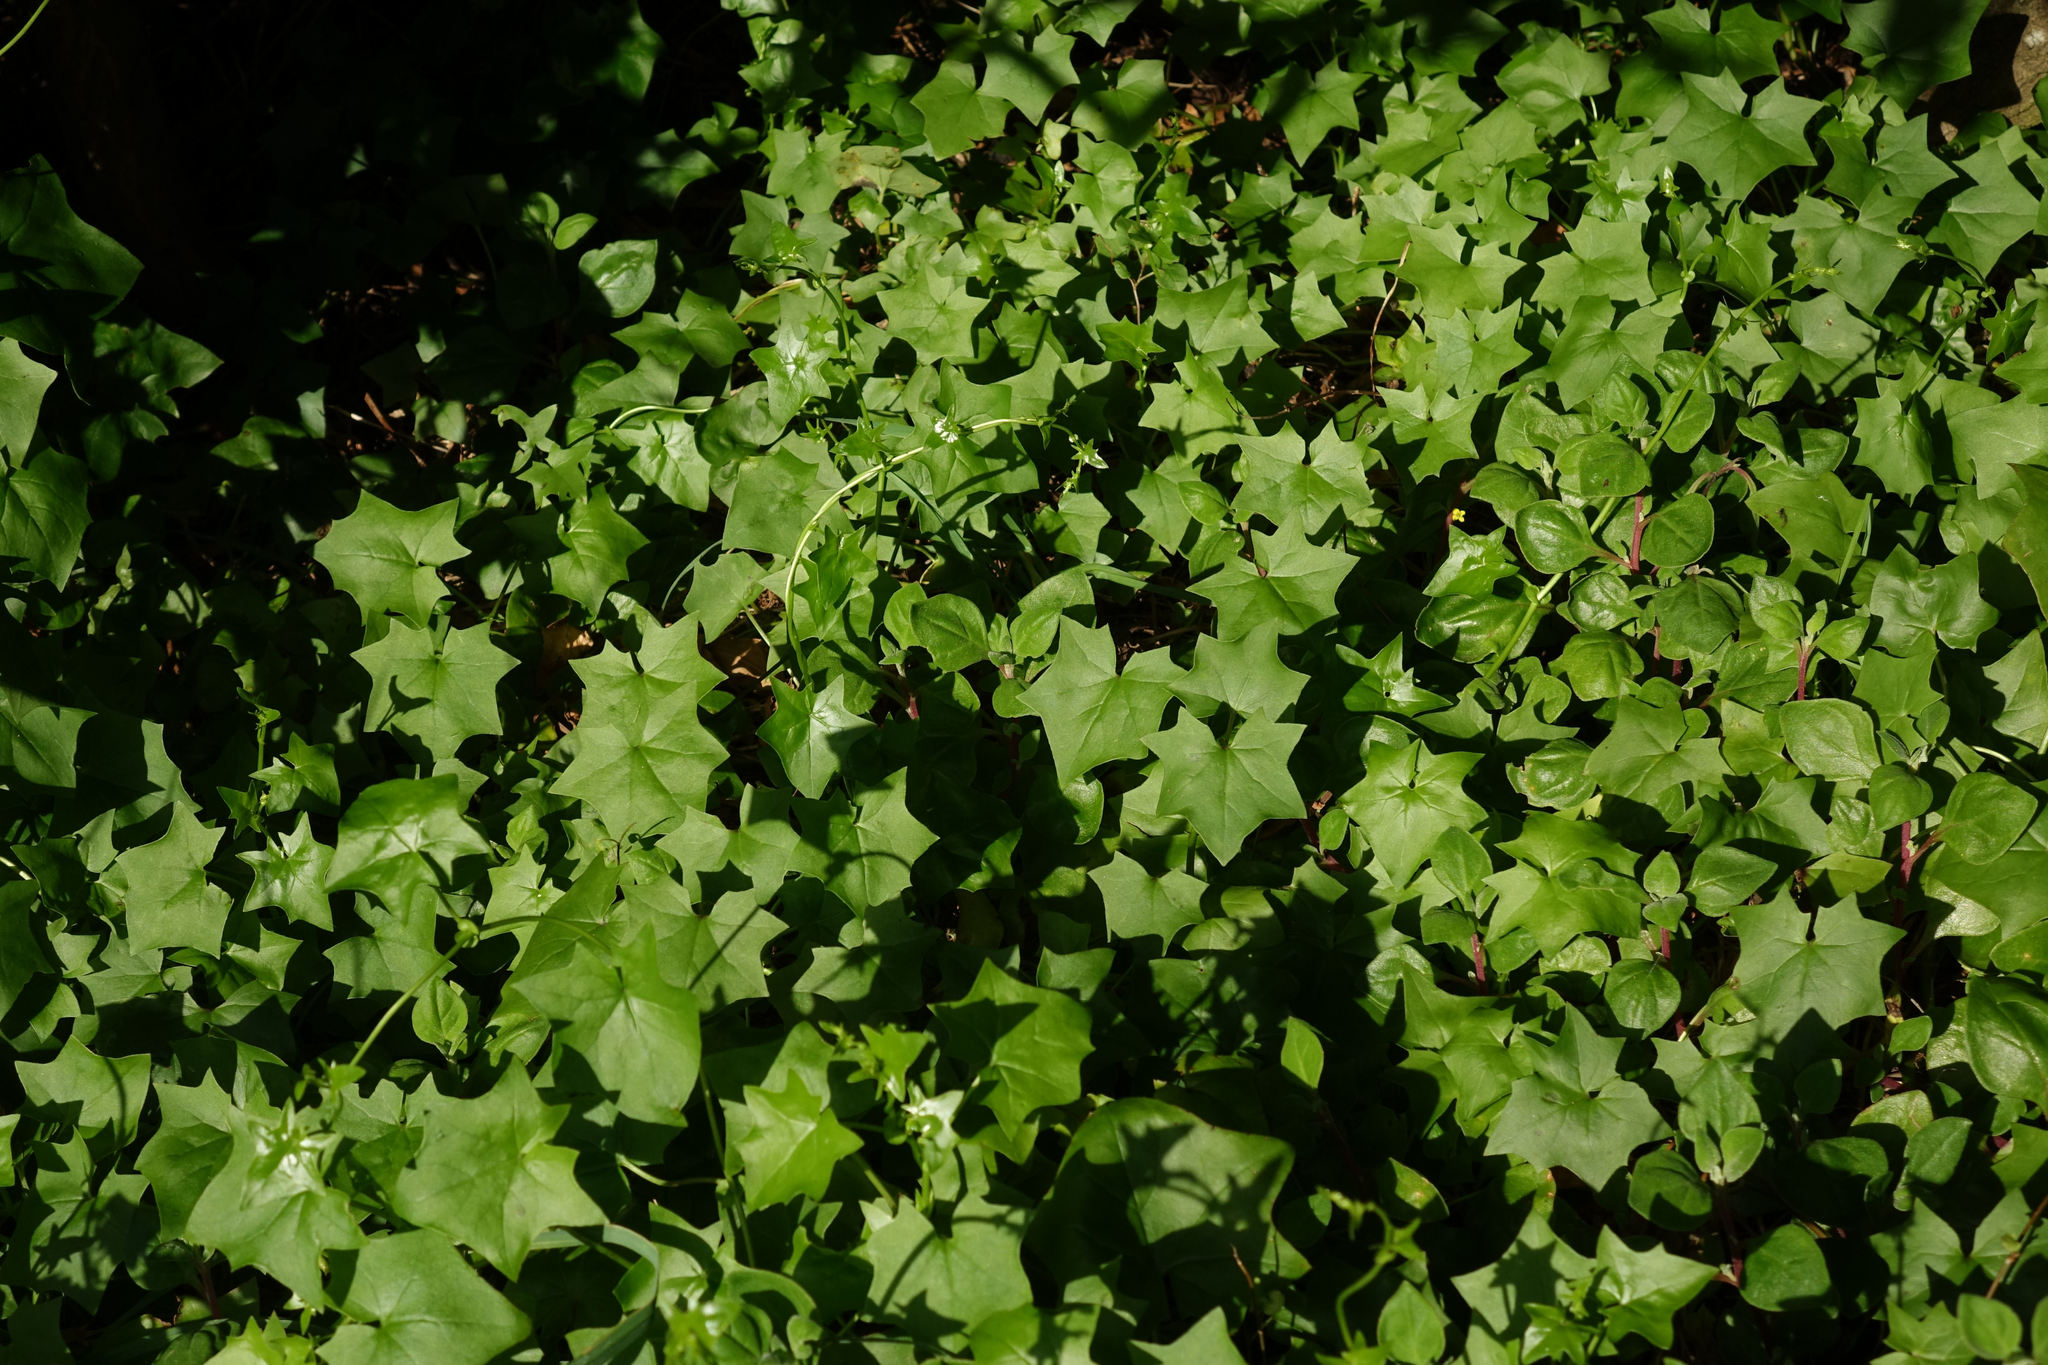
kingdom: Plantae
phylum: Tracheophyta
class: Magnoliopsida
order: Asterales
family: Asteraceae
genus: Delairea
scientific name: Delairea odorata
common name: Cape-ivy
